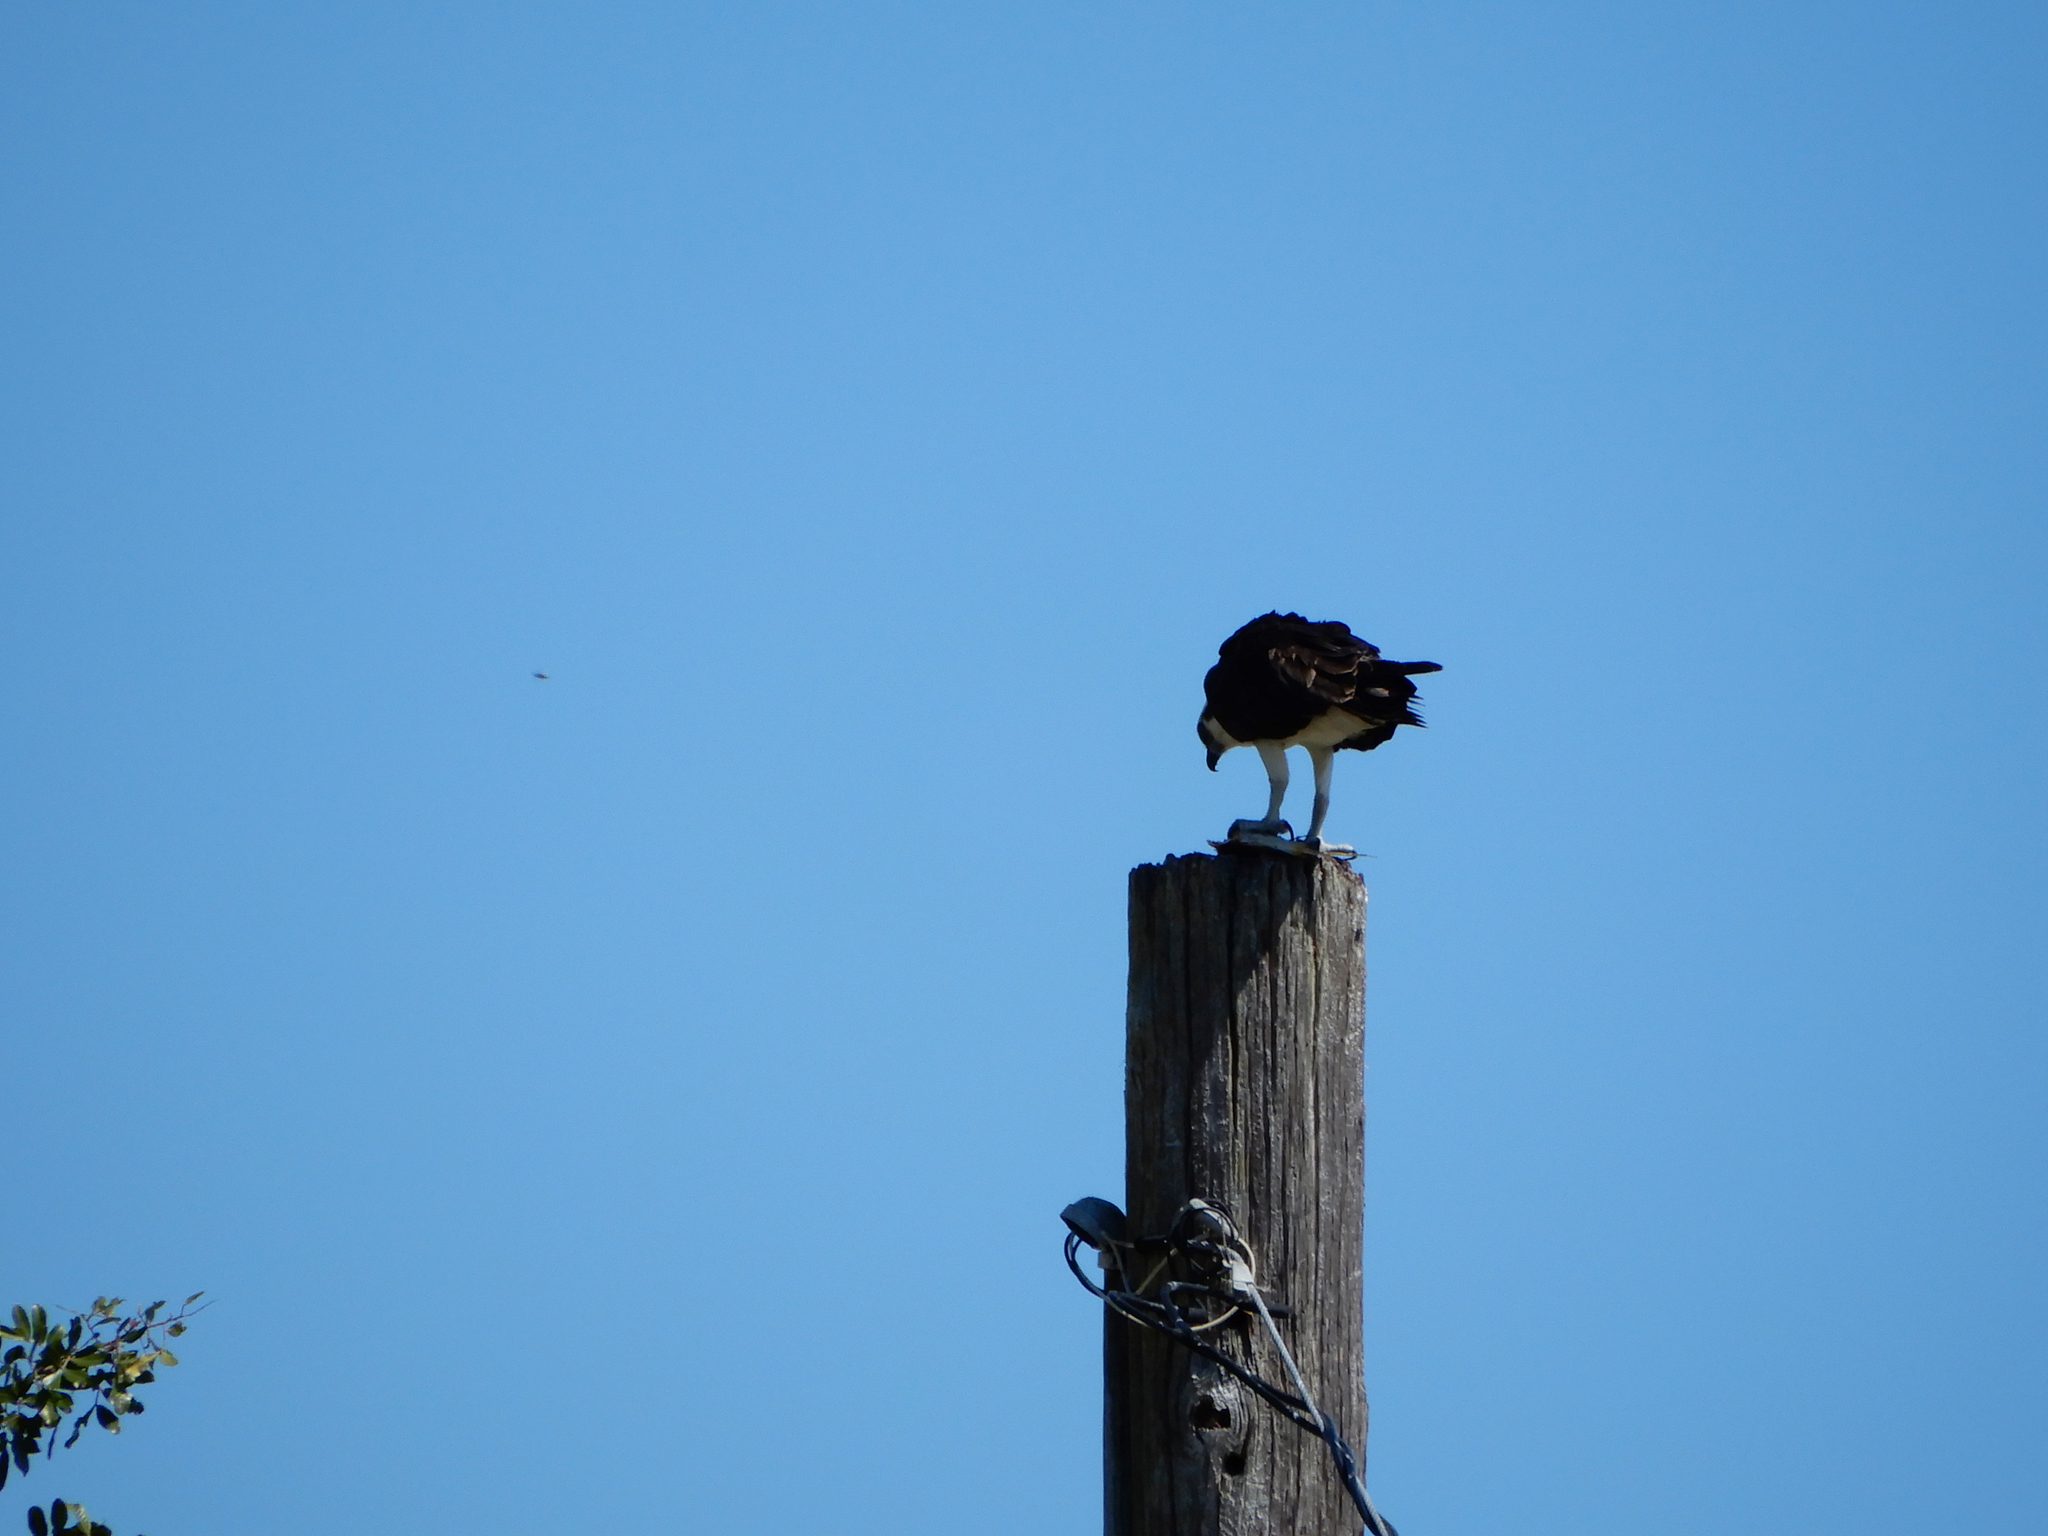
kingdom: Animalia
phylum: Chordata
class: Aves
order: Accipitriformes
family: Pandionidae
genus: Pandion
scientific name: Pandion haliaetus
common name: Osprey
